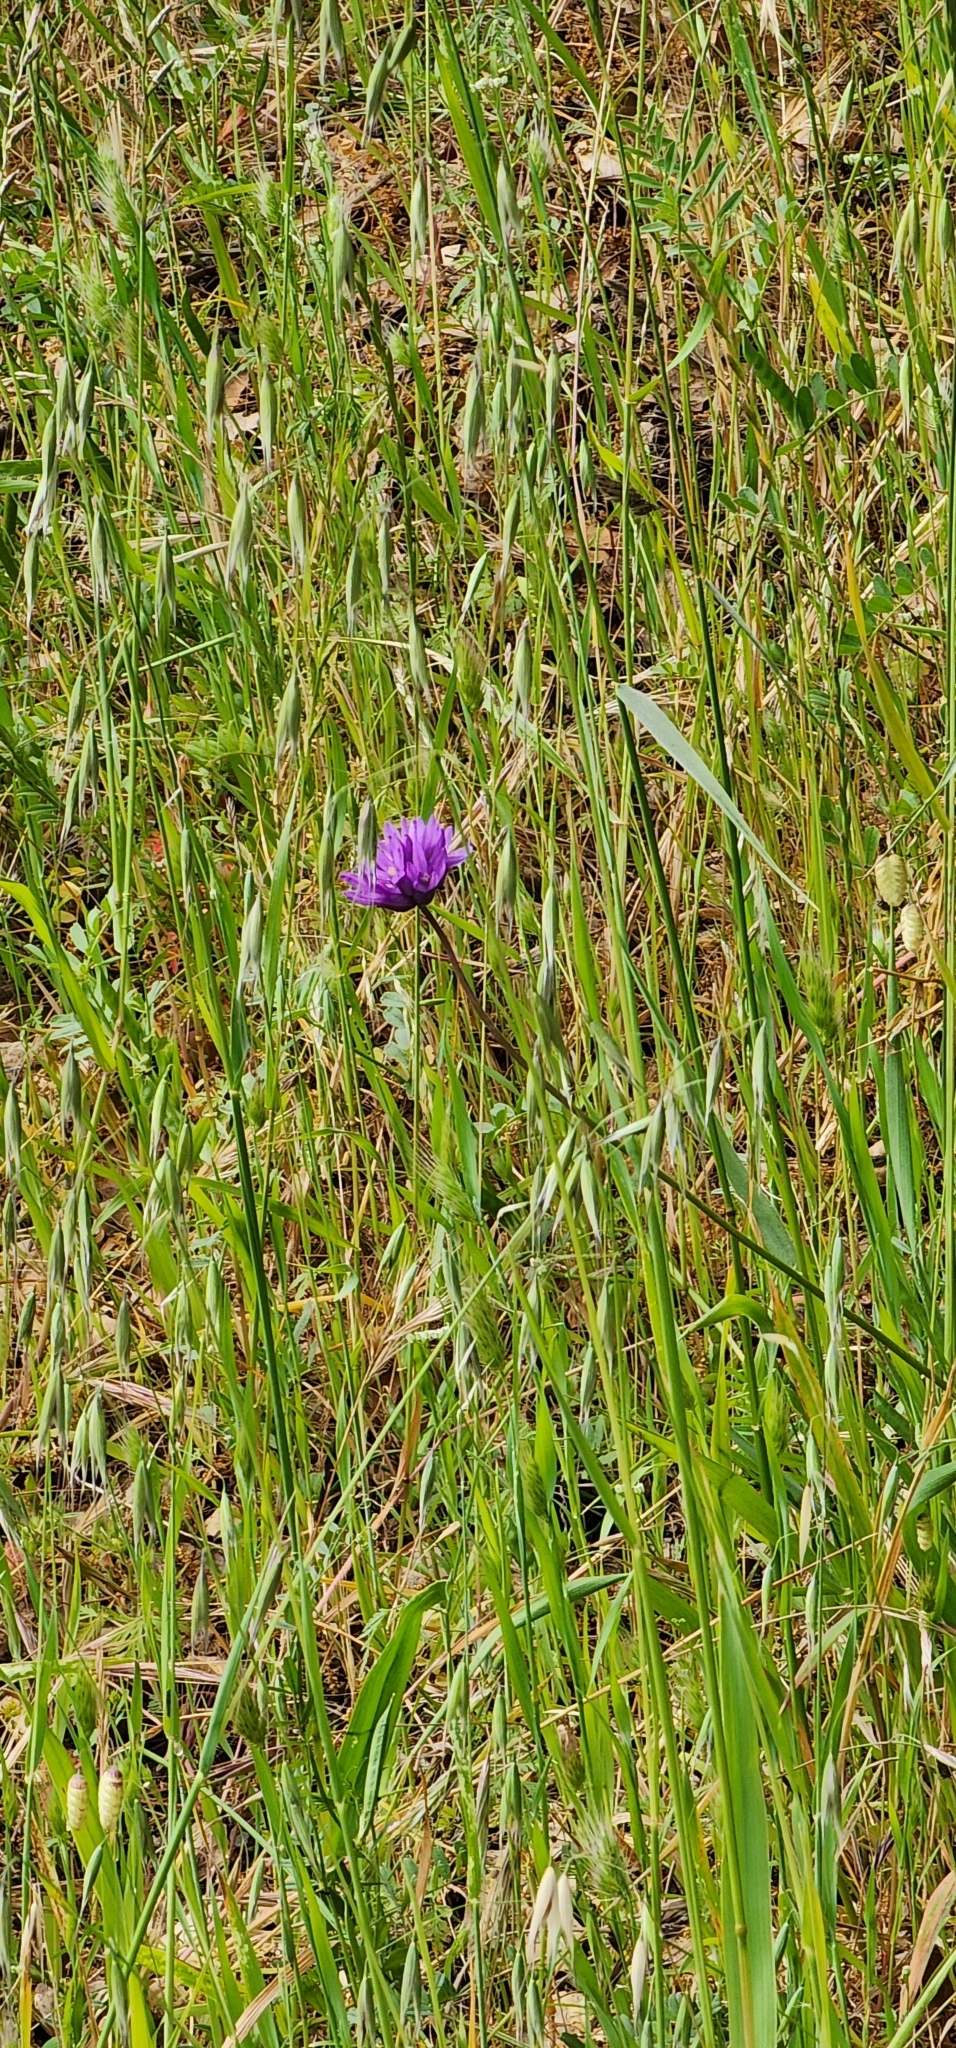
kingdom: Plantae
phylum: Tracheophyta
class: Liliopsida
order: Asparagales
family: Asparagaceae
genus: Dipterostemon
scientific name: Dipterostemon capitatus
